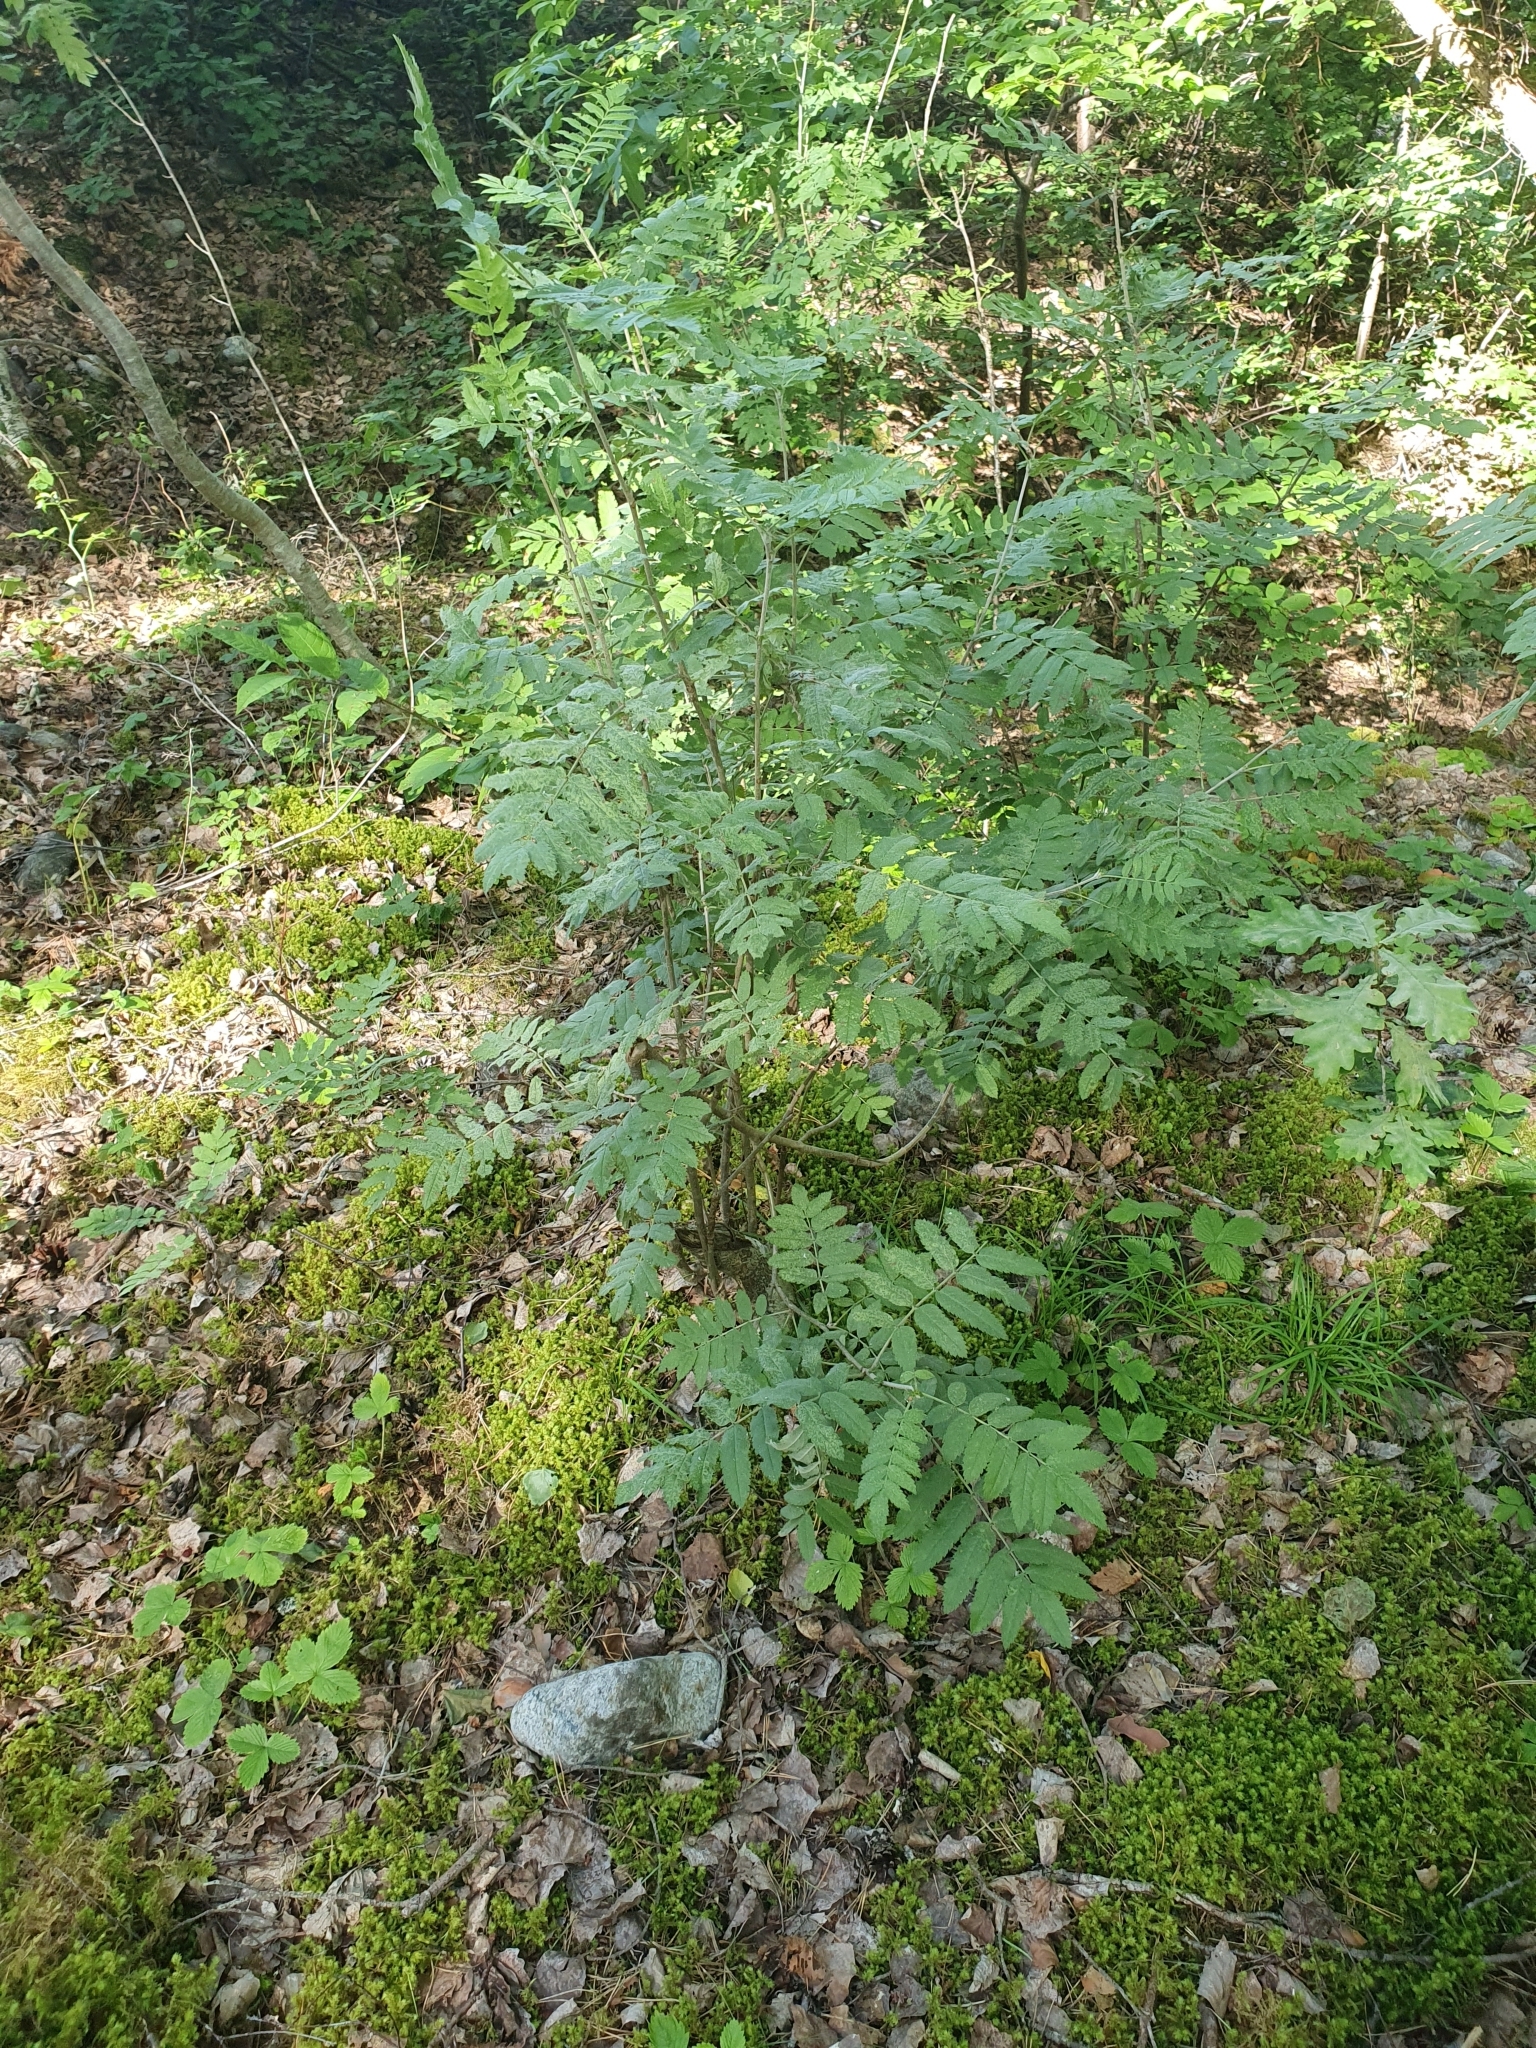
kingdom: Plantae
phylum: Tracheophyta
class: Magnoliopsida
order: Rosales
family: Rosaceae
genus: Sorbus
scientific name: Sorbus aucuparia
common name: Rowan
